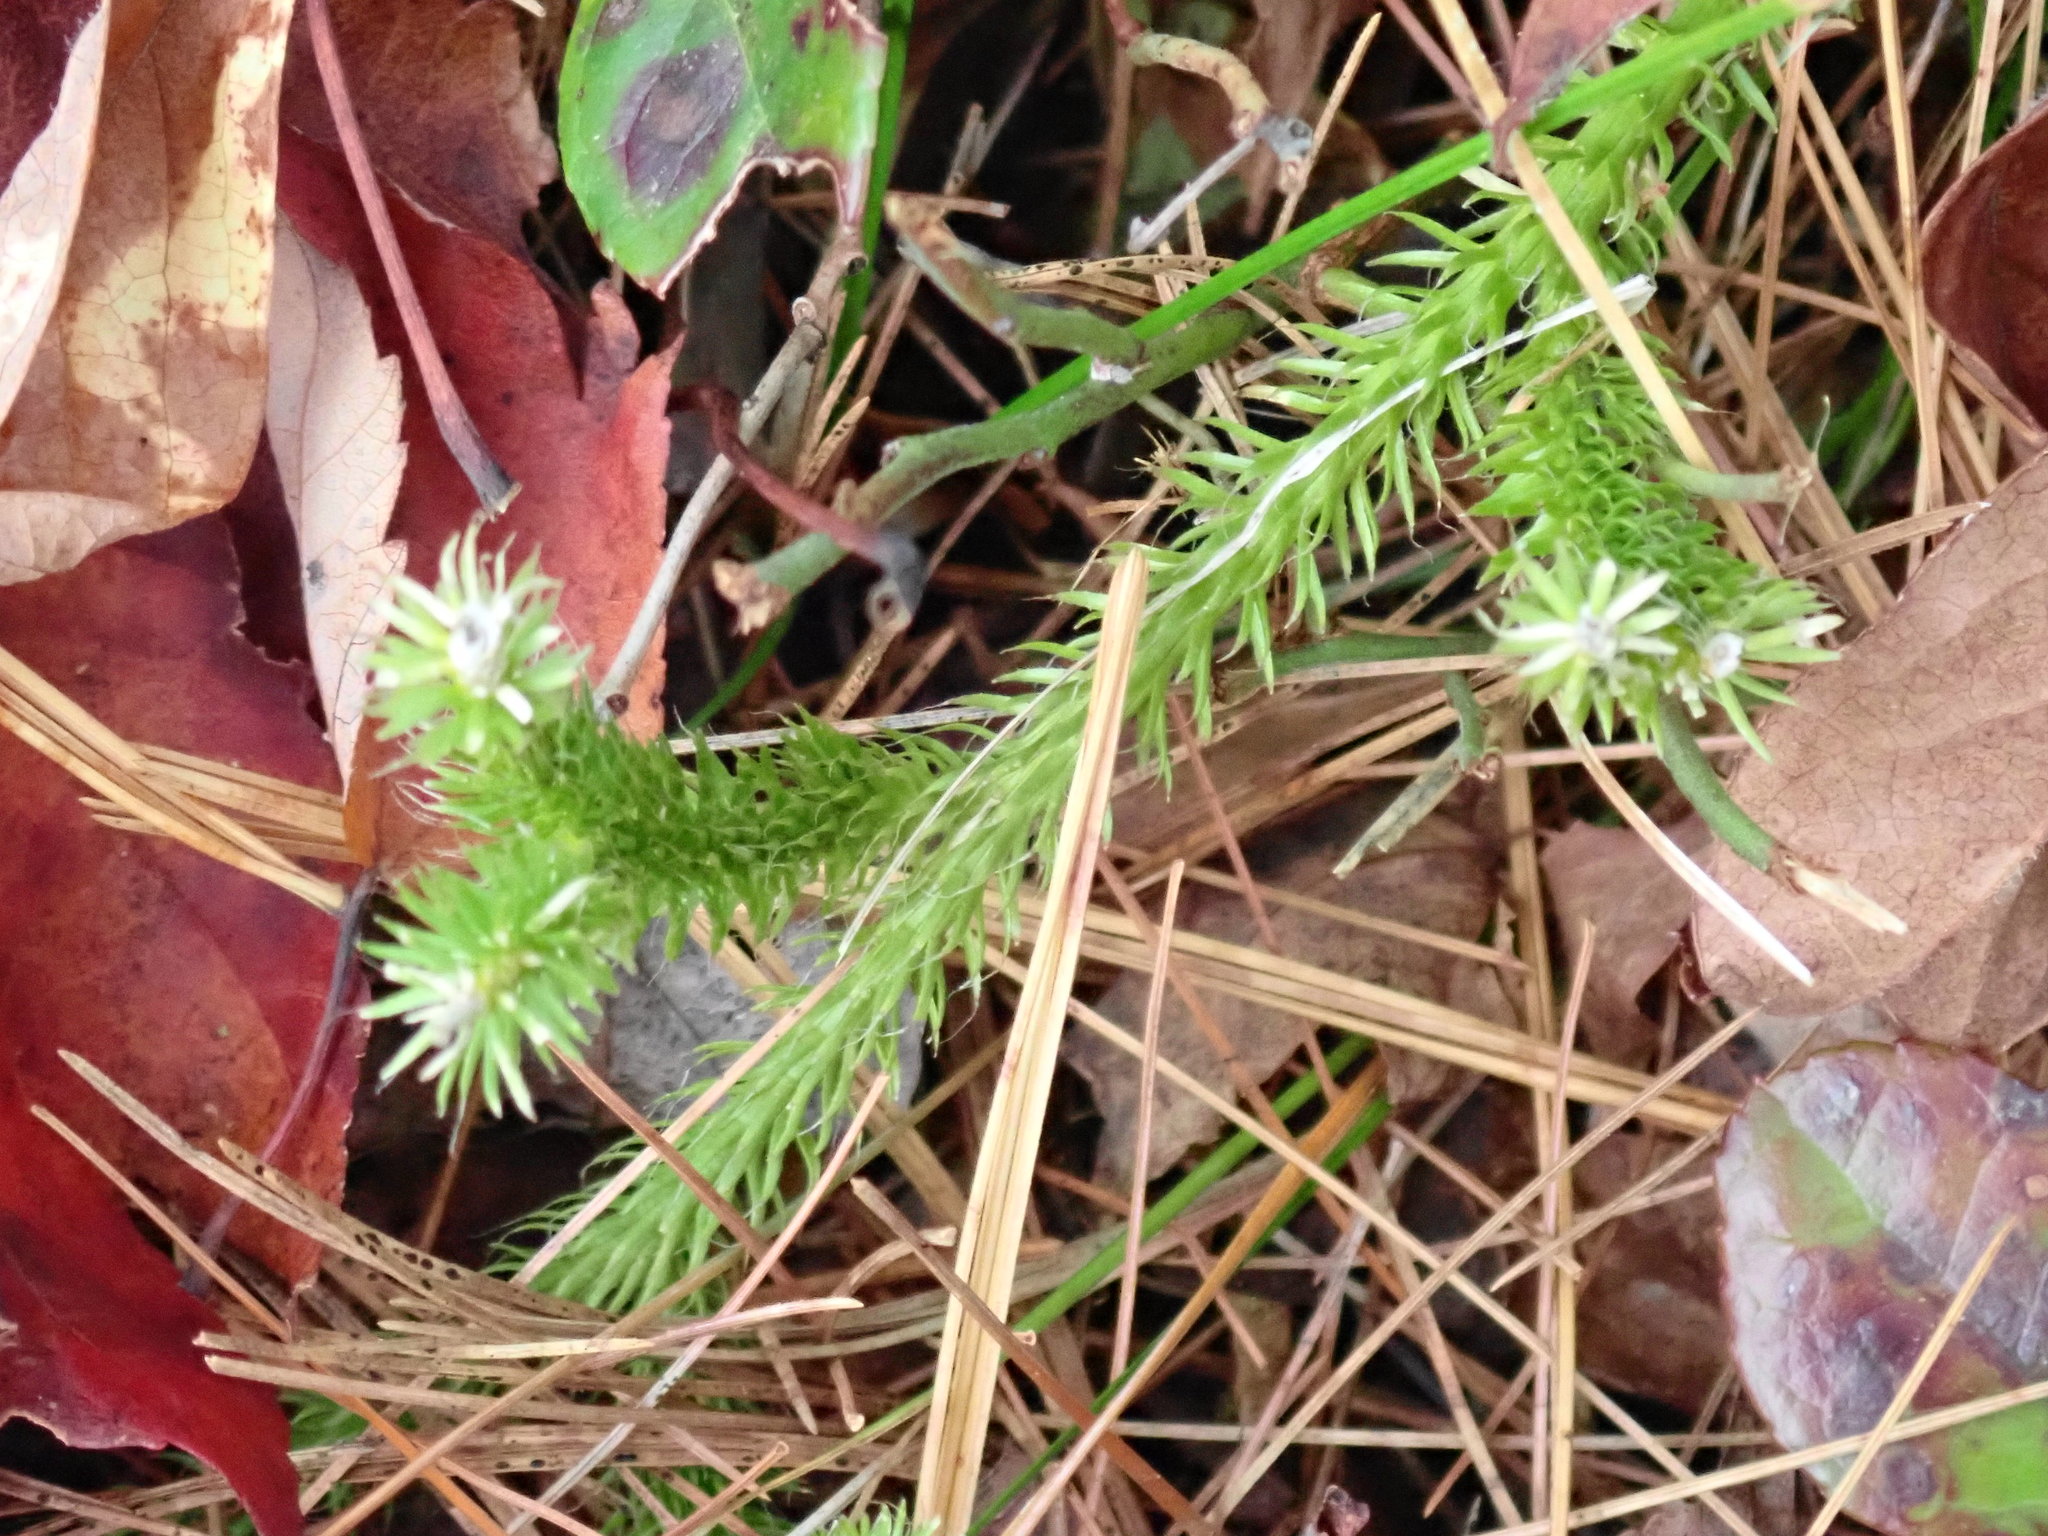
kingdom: Plantae
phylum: Tracheophyta
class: Lycopodiopsida
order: Lycopodiales
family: Lycopodiaceae
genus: Lycopodium
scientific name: Lycopodium clavatum
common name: Stag's-horn clubmoss
